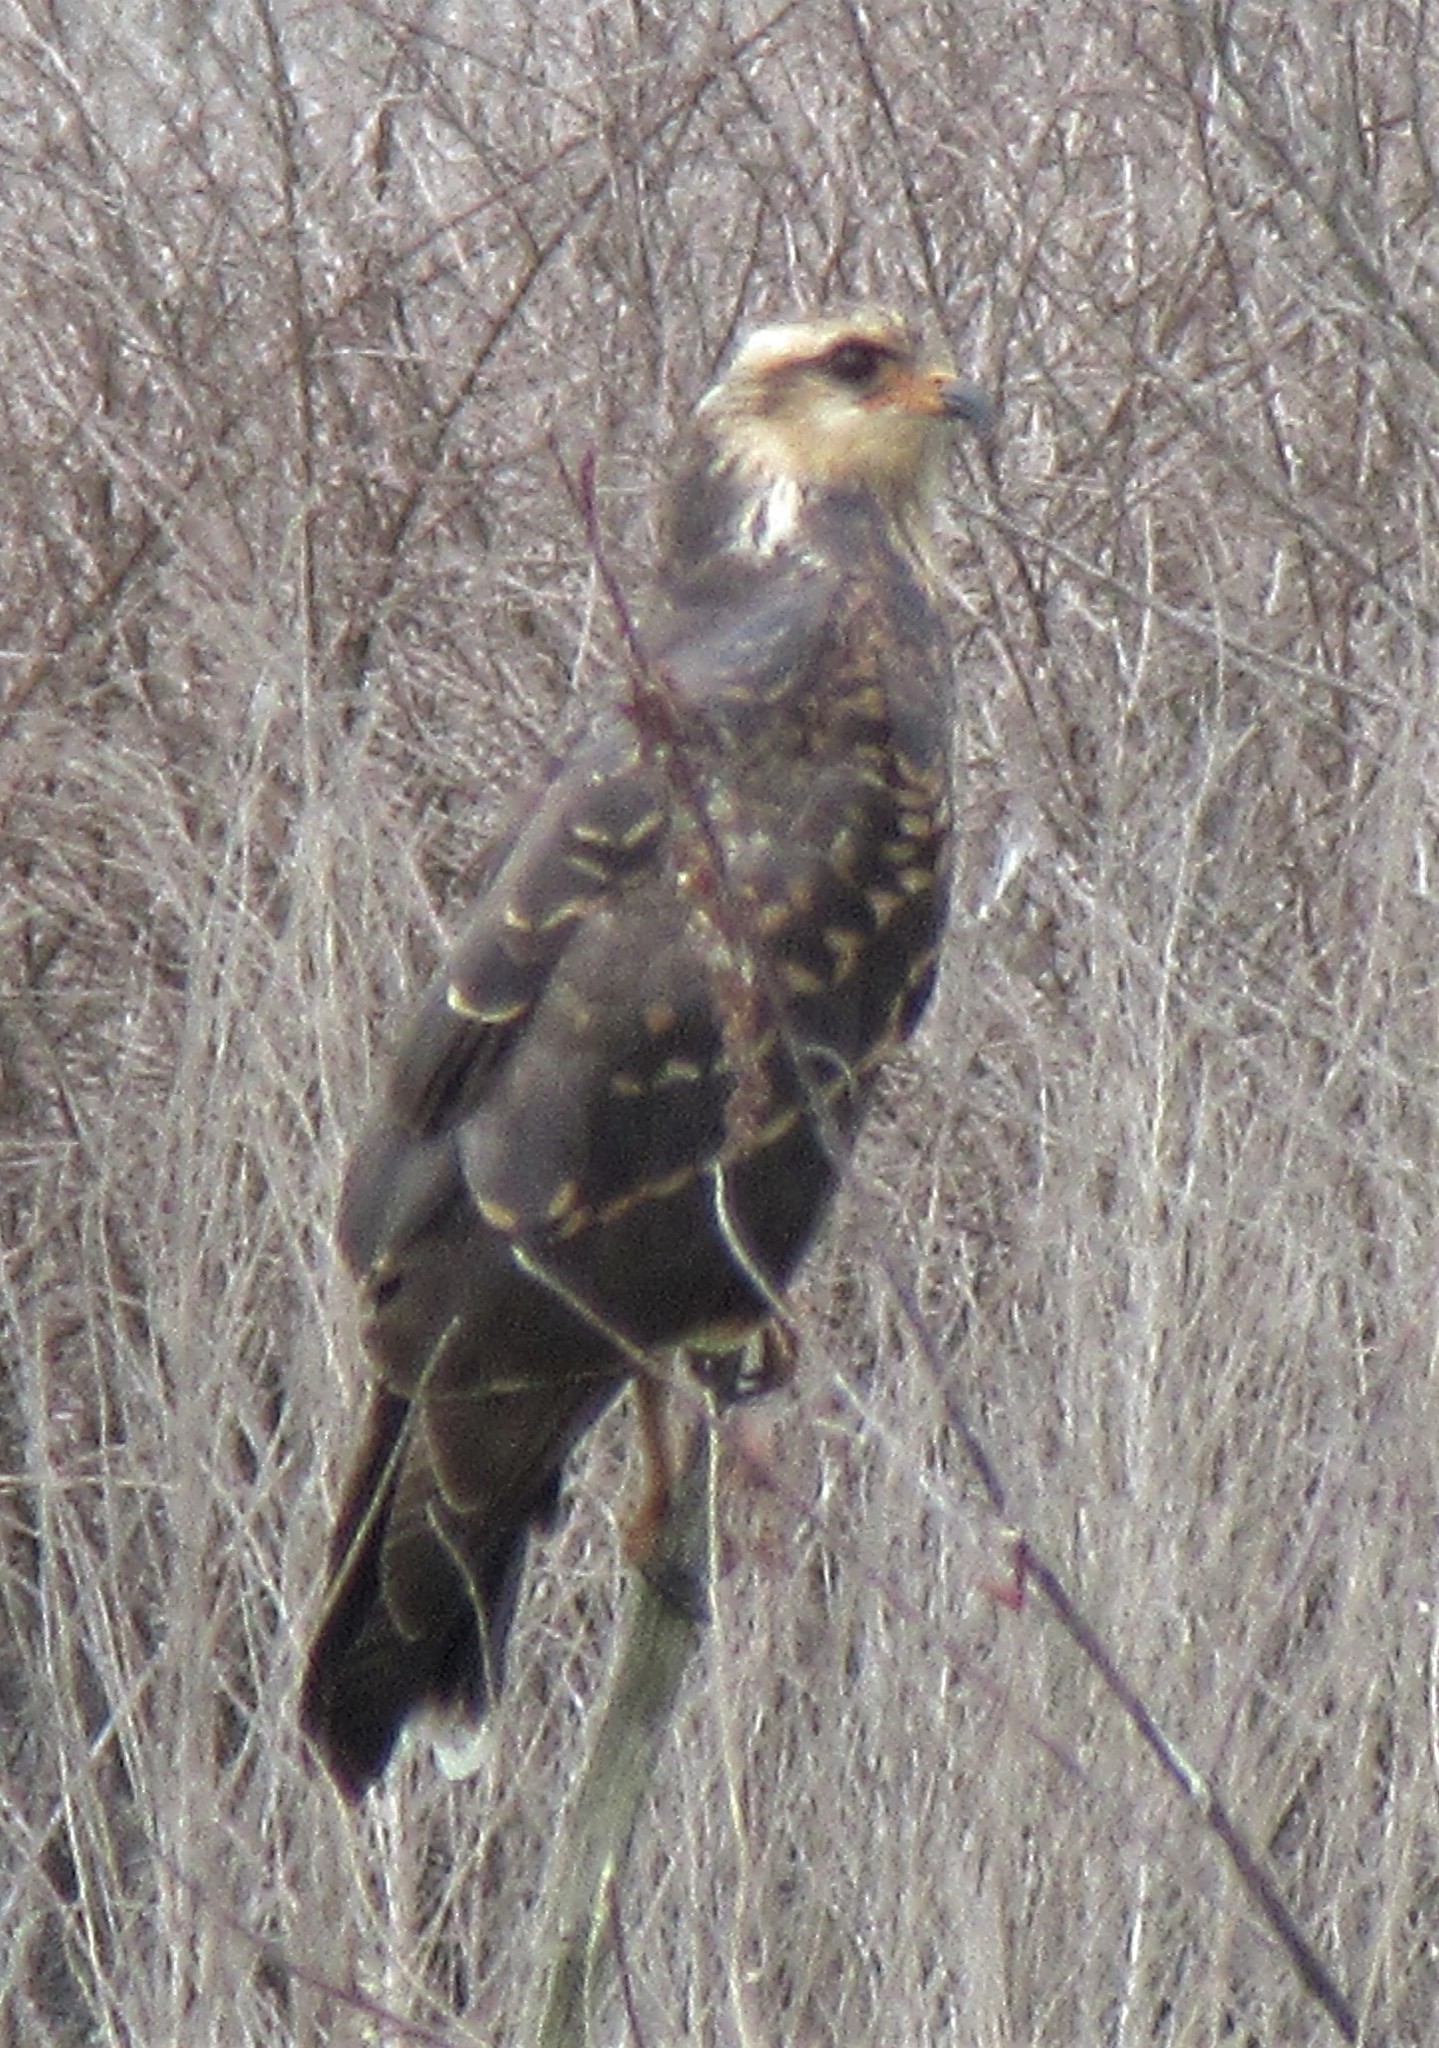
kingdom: Animalia
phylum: Chordata
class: Aves
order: Accipitriformes
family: Accipitridae
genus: Rostrhamus
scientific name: Rostrhamus sociabilis
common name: Snail kite
